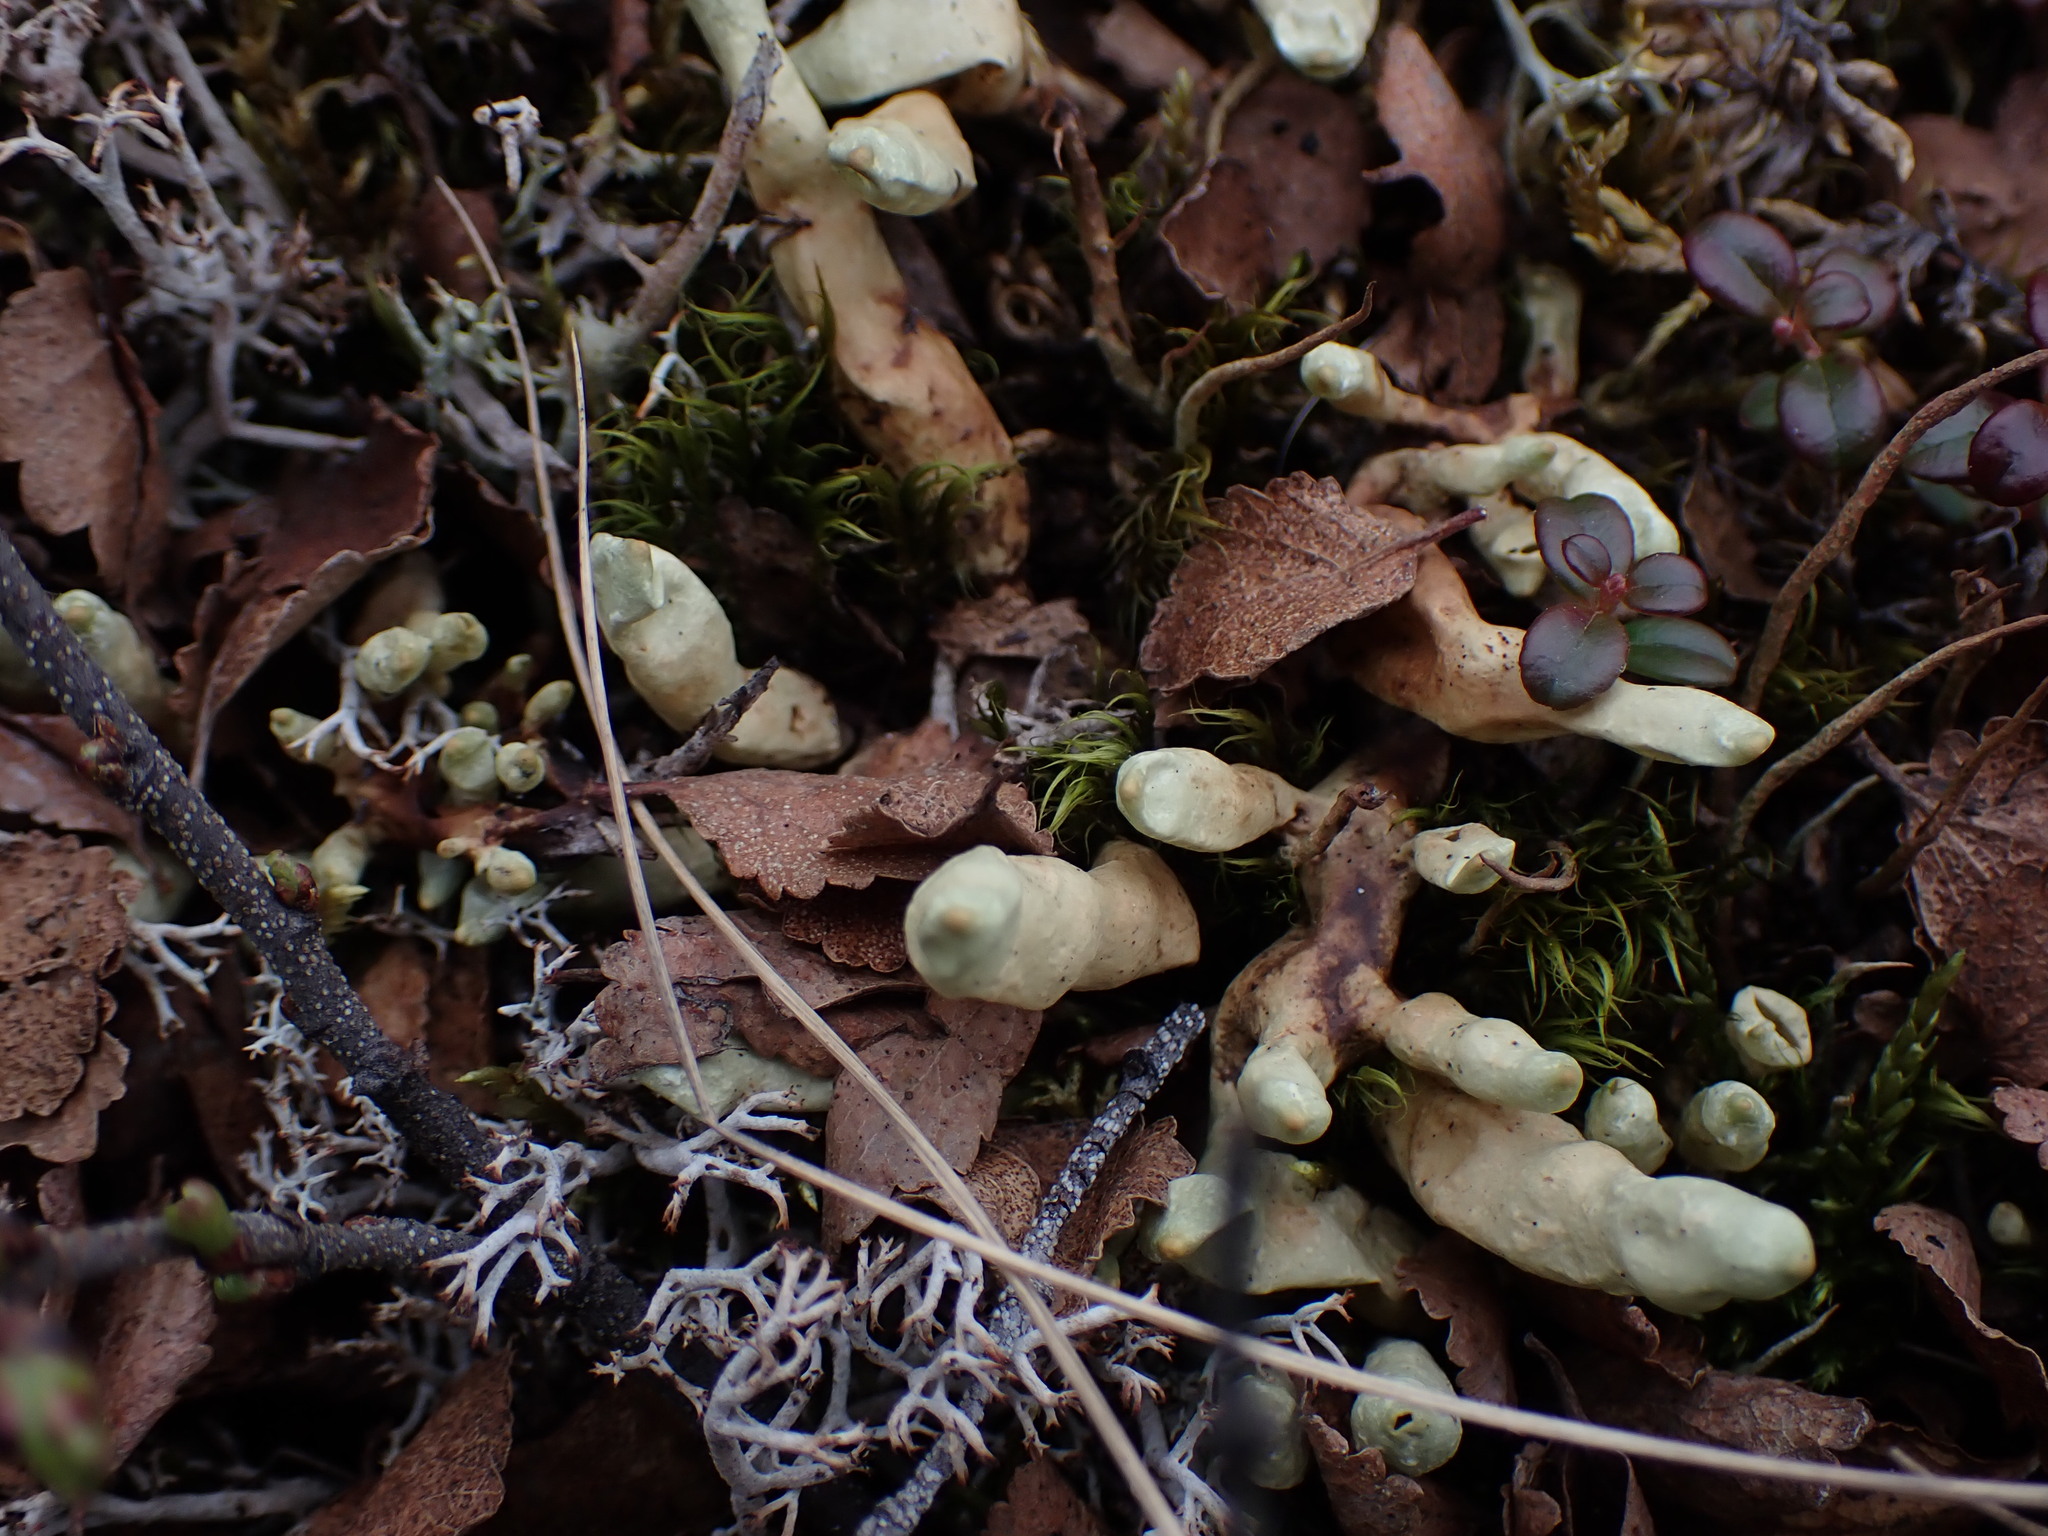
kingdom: Fungi
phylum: Ascomycota
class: Lecanoromycetes
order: Lecanorales
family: Parmeliaceae
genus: Dactylina
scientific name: Dactylina arctica
